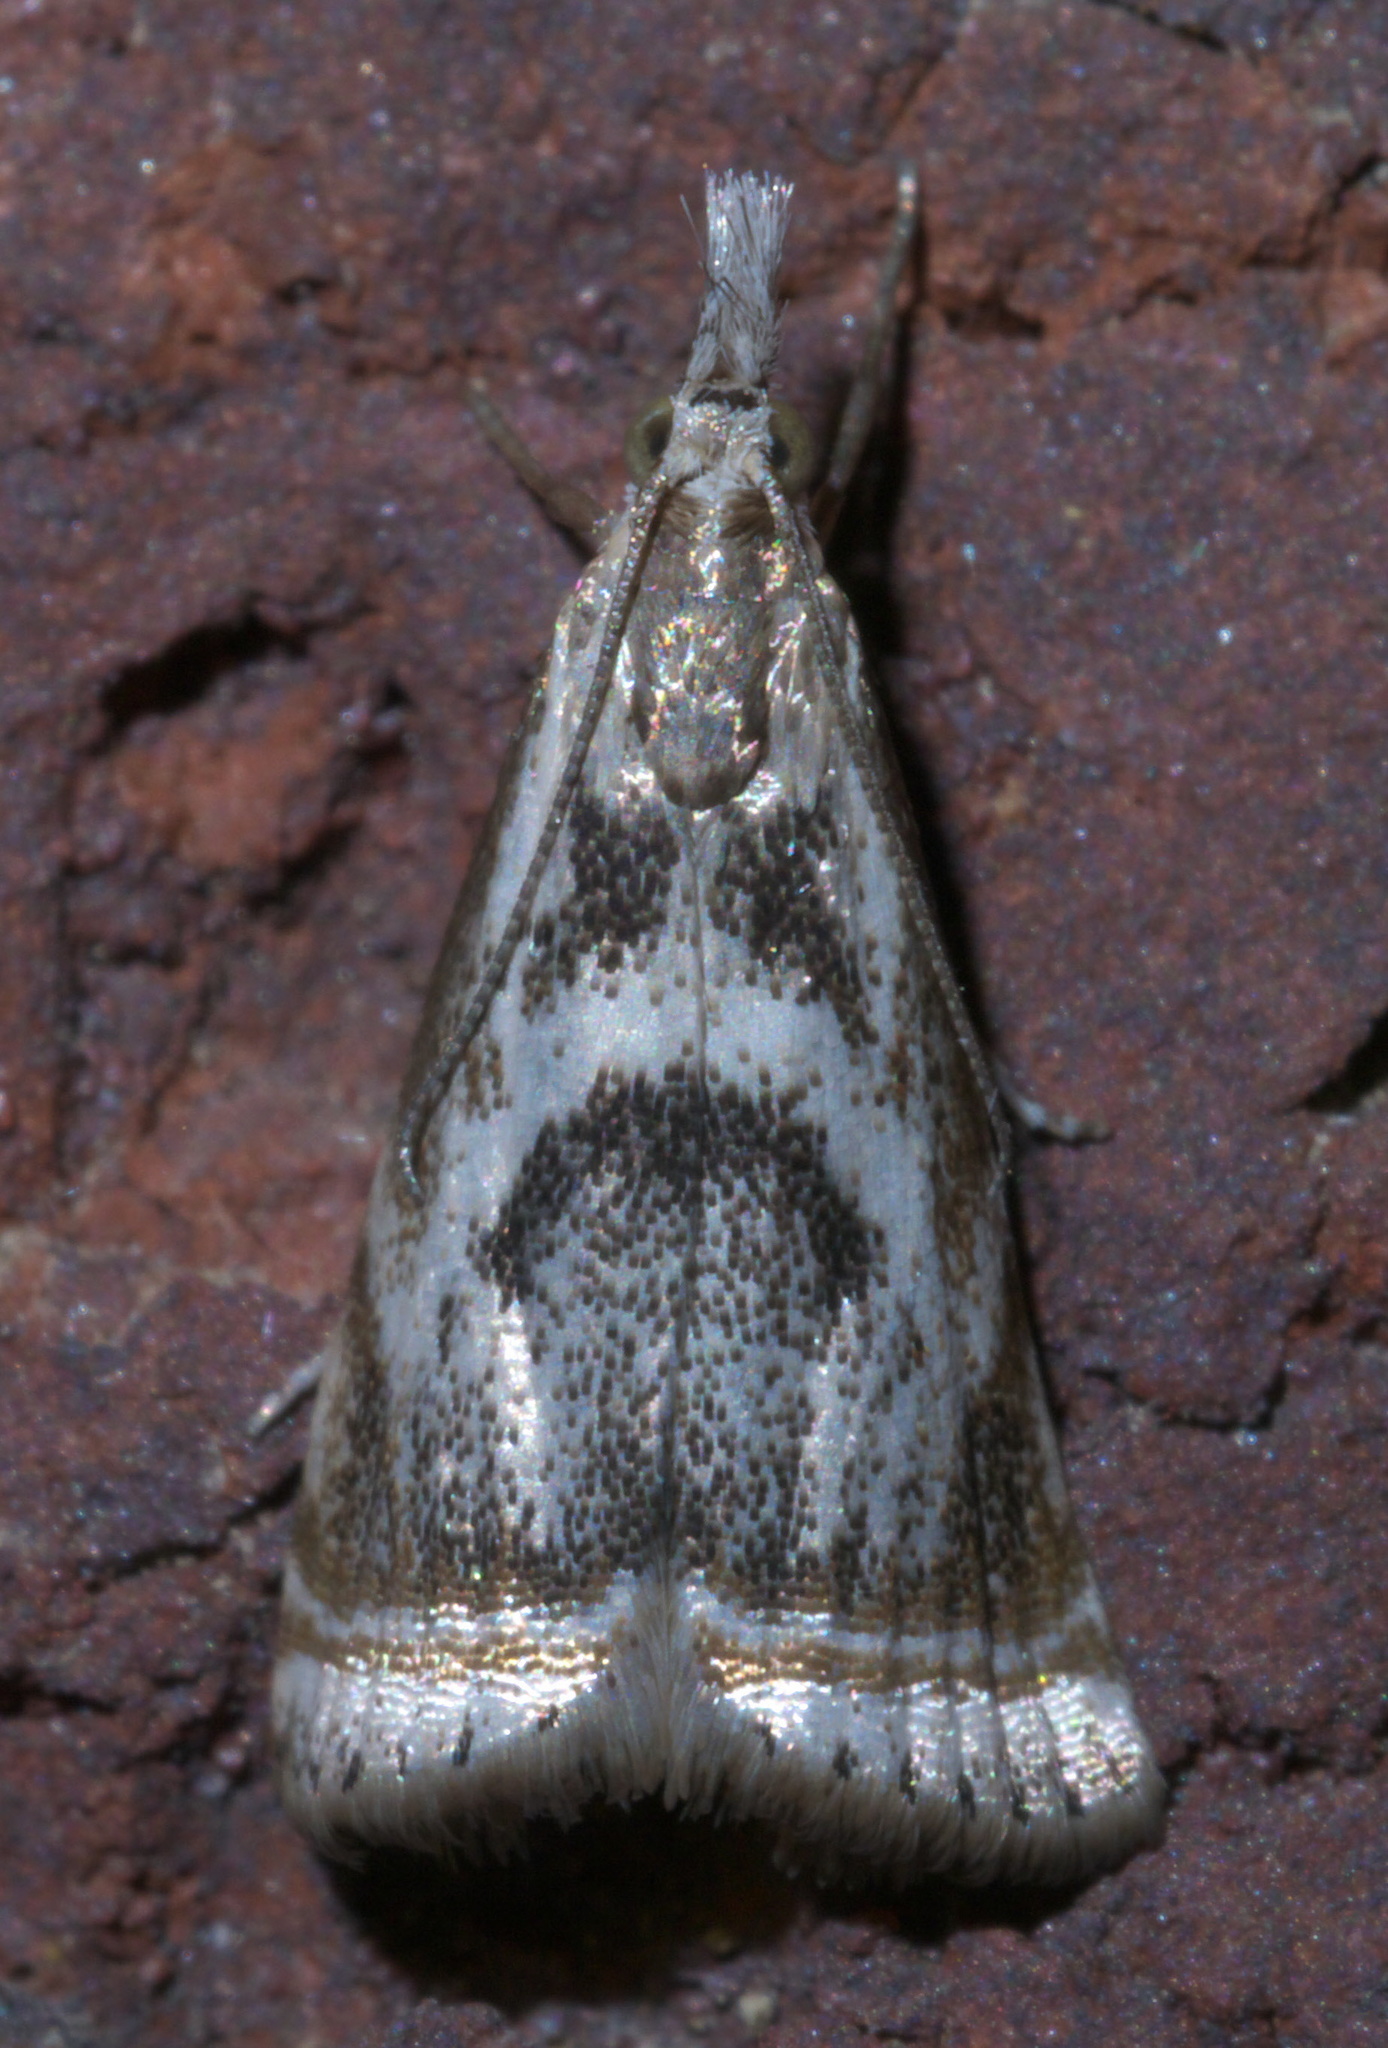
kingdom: Animalia
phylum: Arthropoda
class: Insecta
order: Lepidoptera
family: Crambidae
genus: Microcrambus
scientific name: Microcrambus elegans
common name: Elegant grass-veneer
